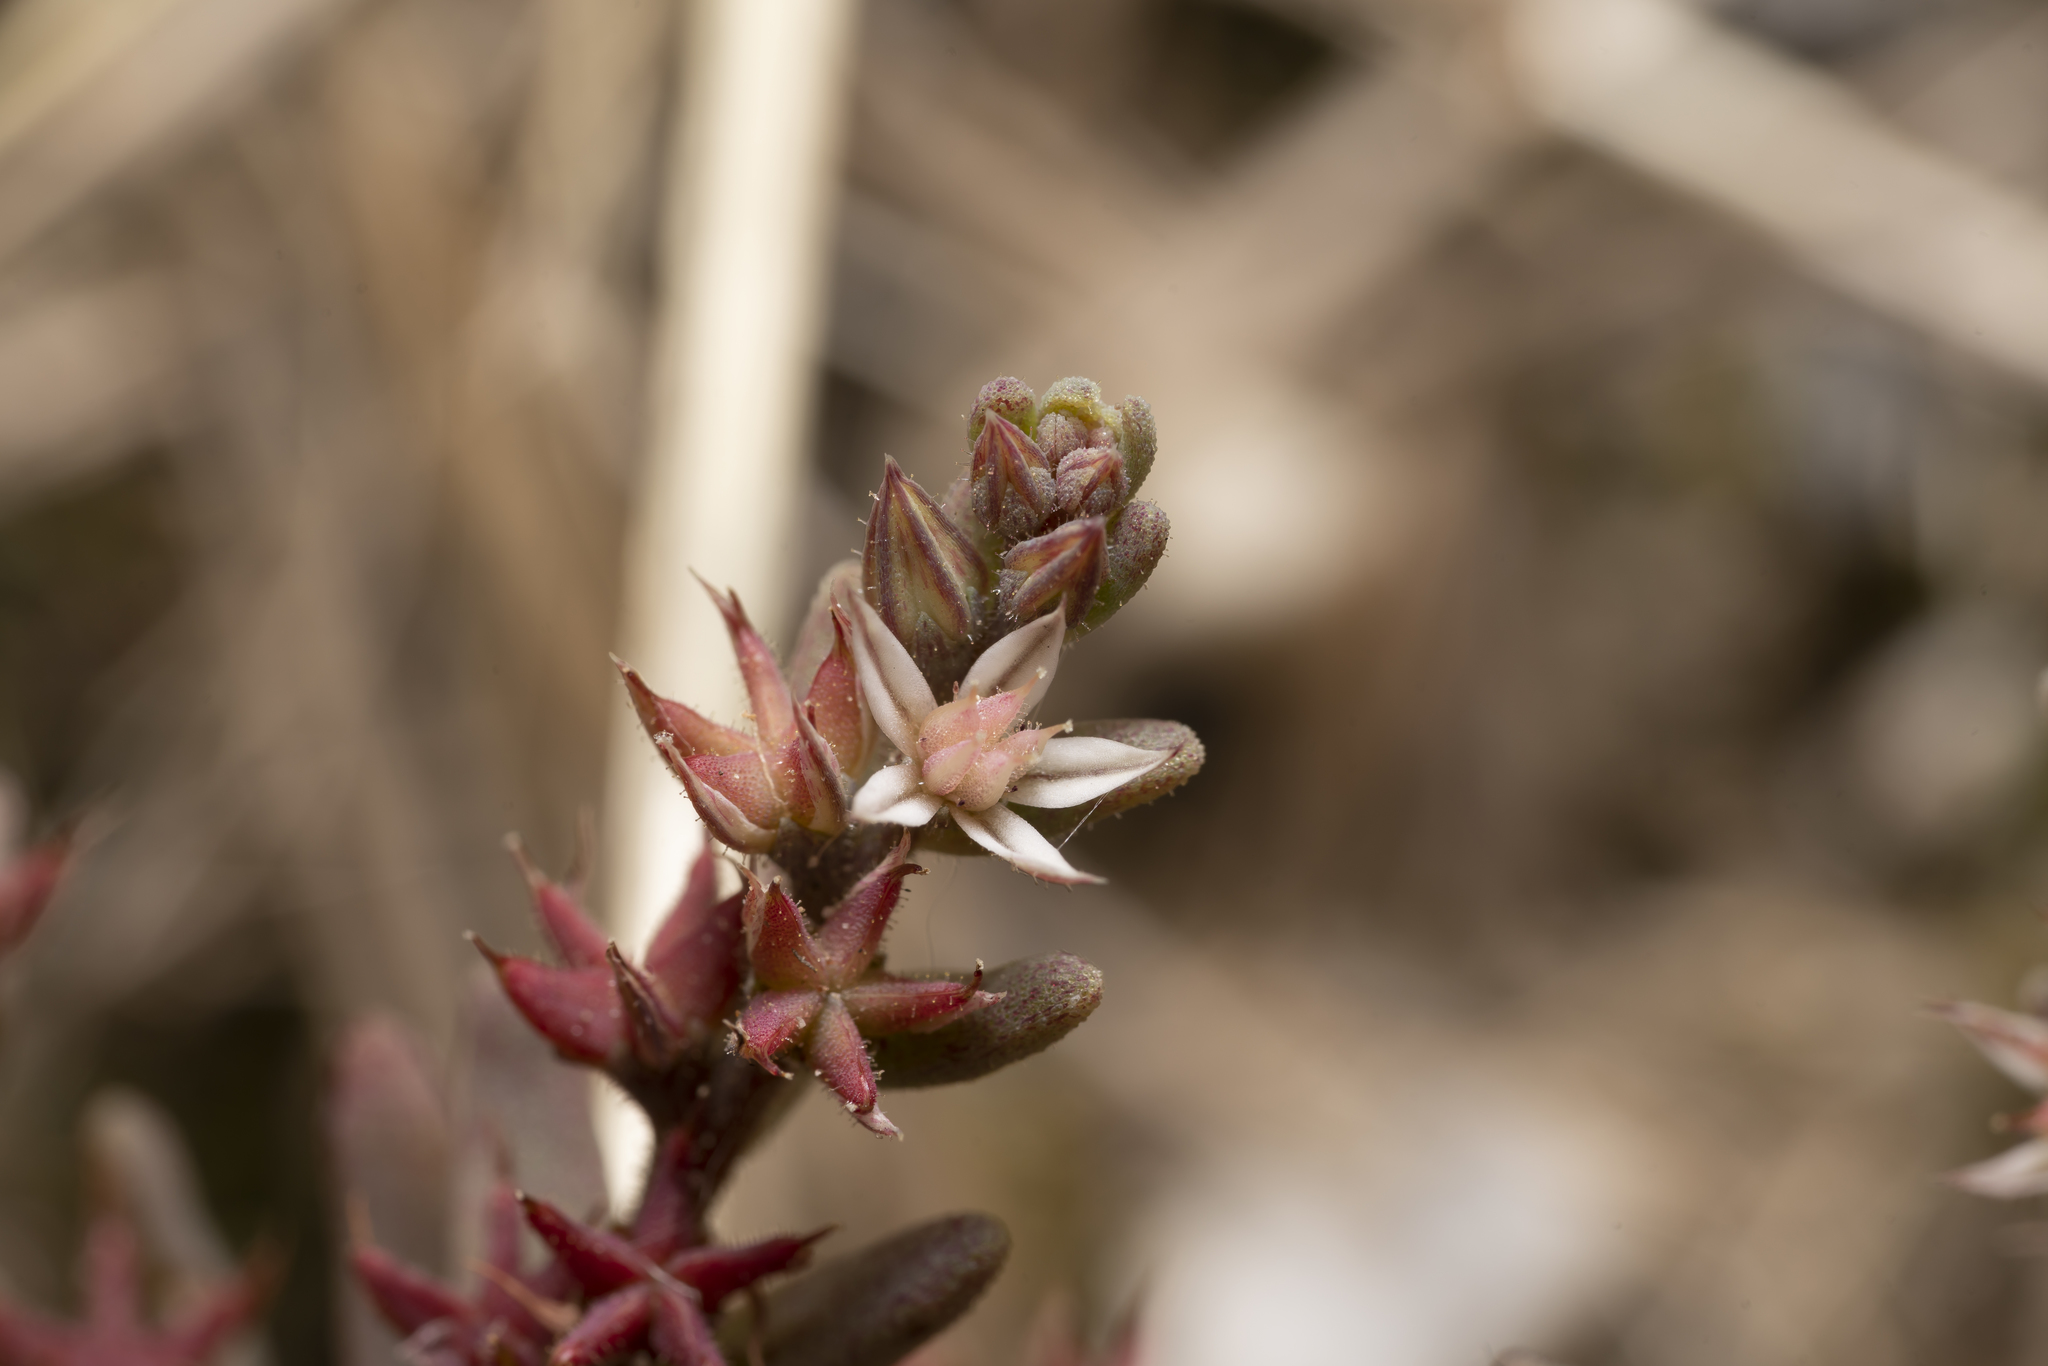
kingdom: Plantae
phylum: Tracheophyta
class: Magnoliopsida
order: Saxifragales
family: Crassulaceae
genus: Sedum
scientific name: Sedum rubens
